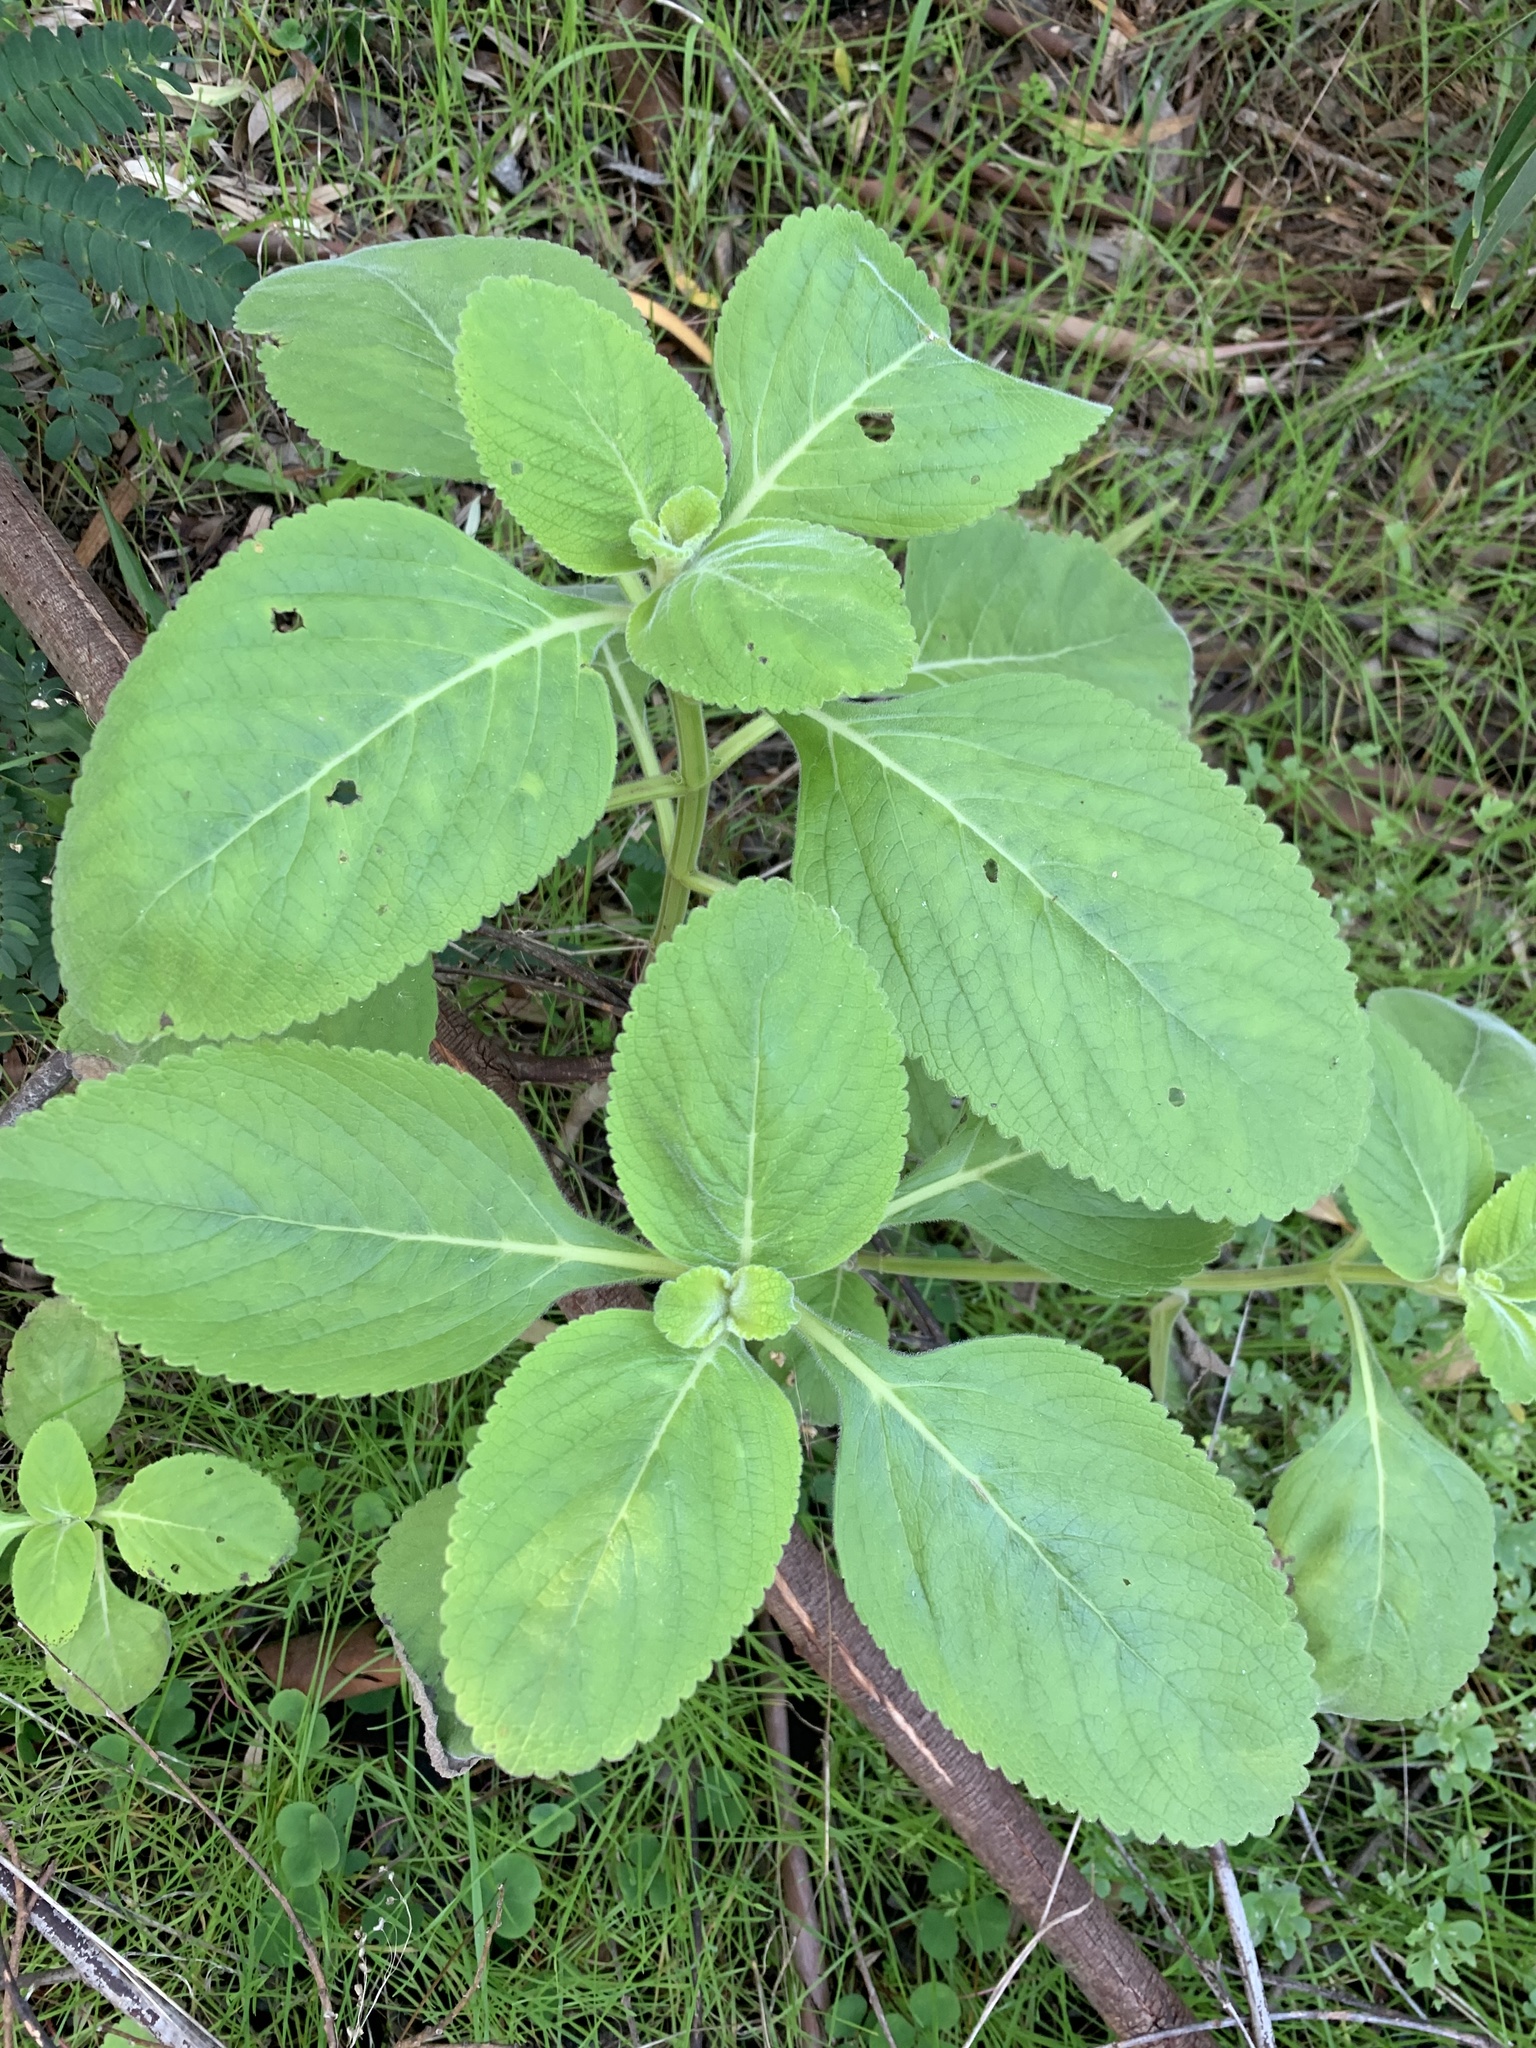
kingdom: Plantae
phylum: Tracheophyta
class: Magnoliopsida
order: Lamiales
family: Lamiaceae
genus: Coleus
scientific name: Coleus barbatus
